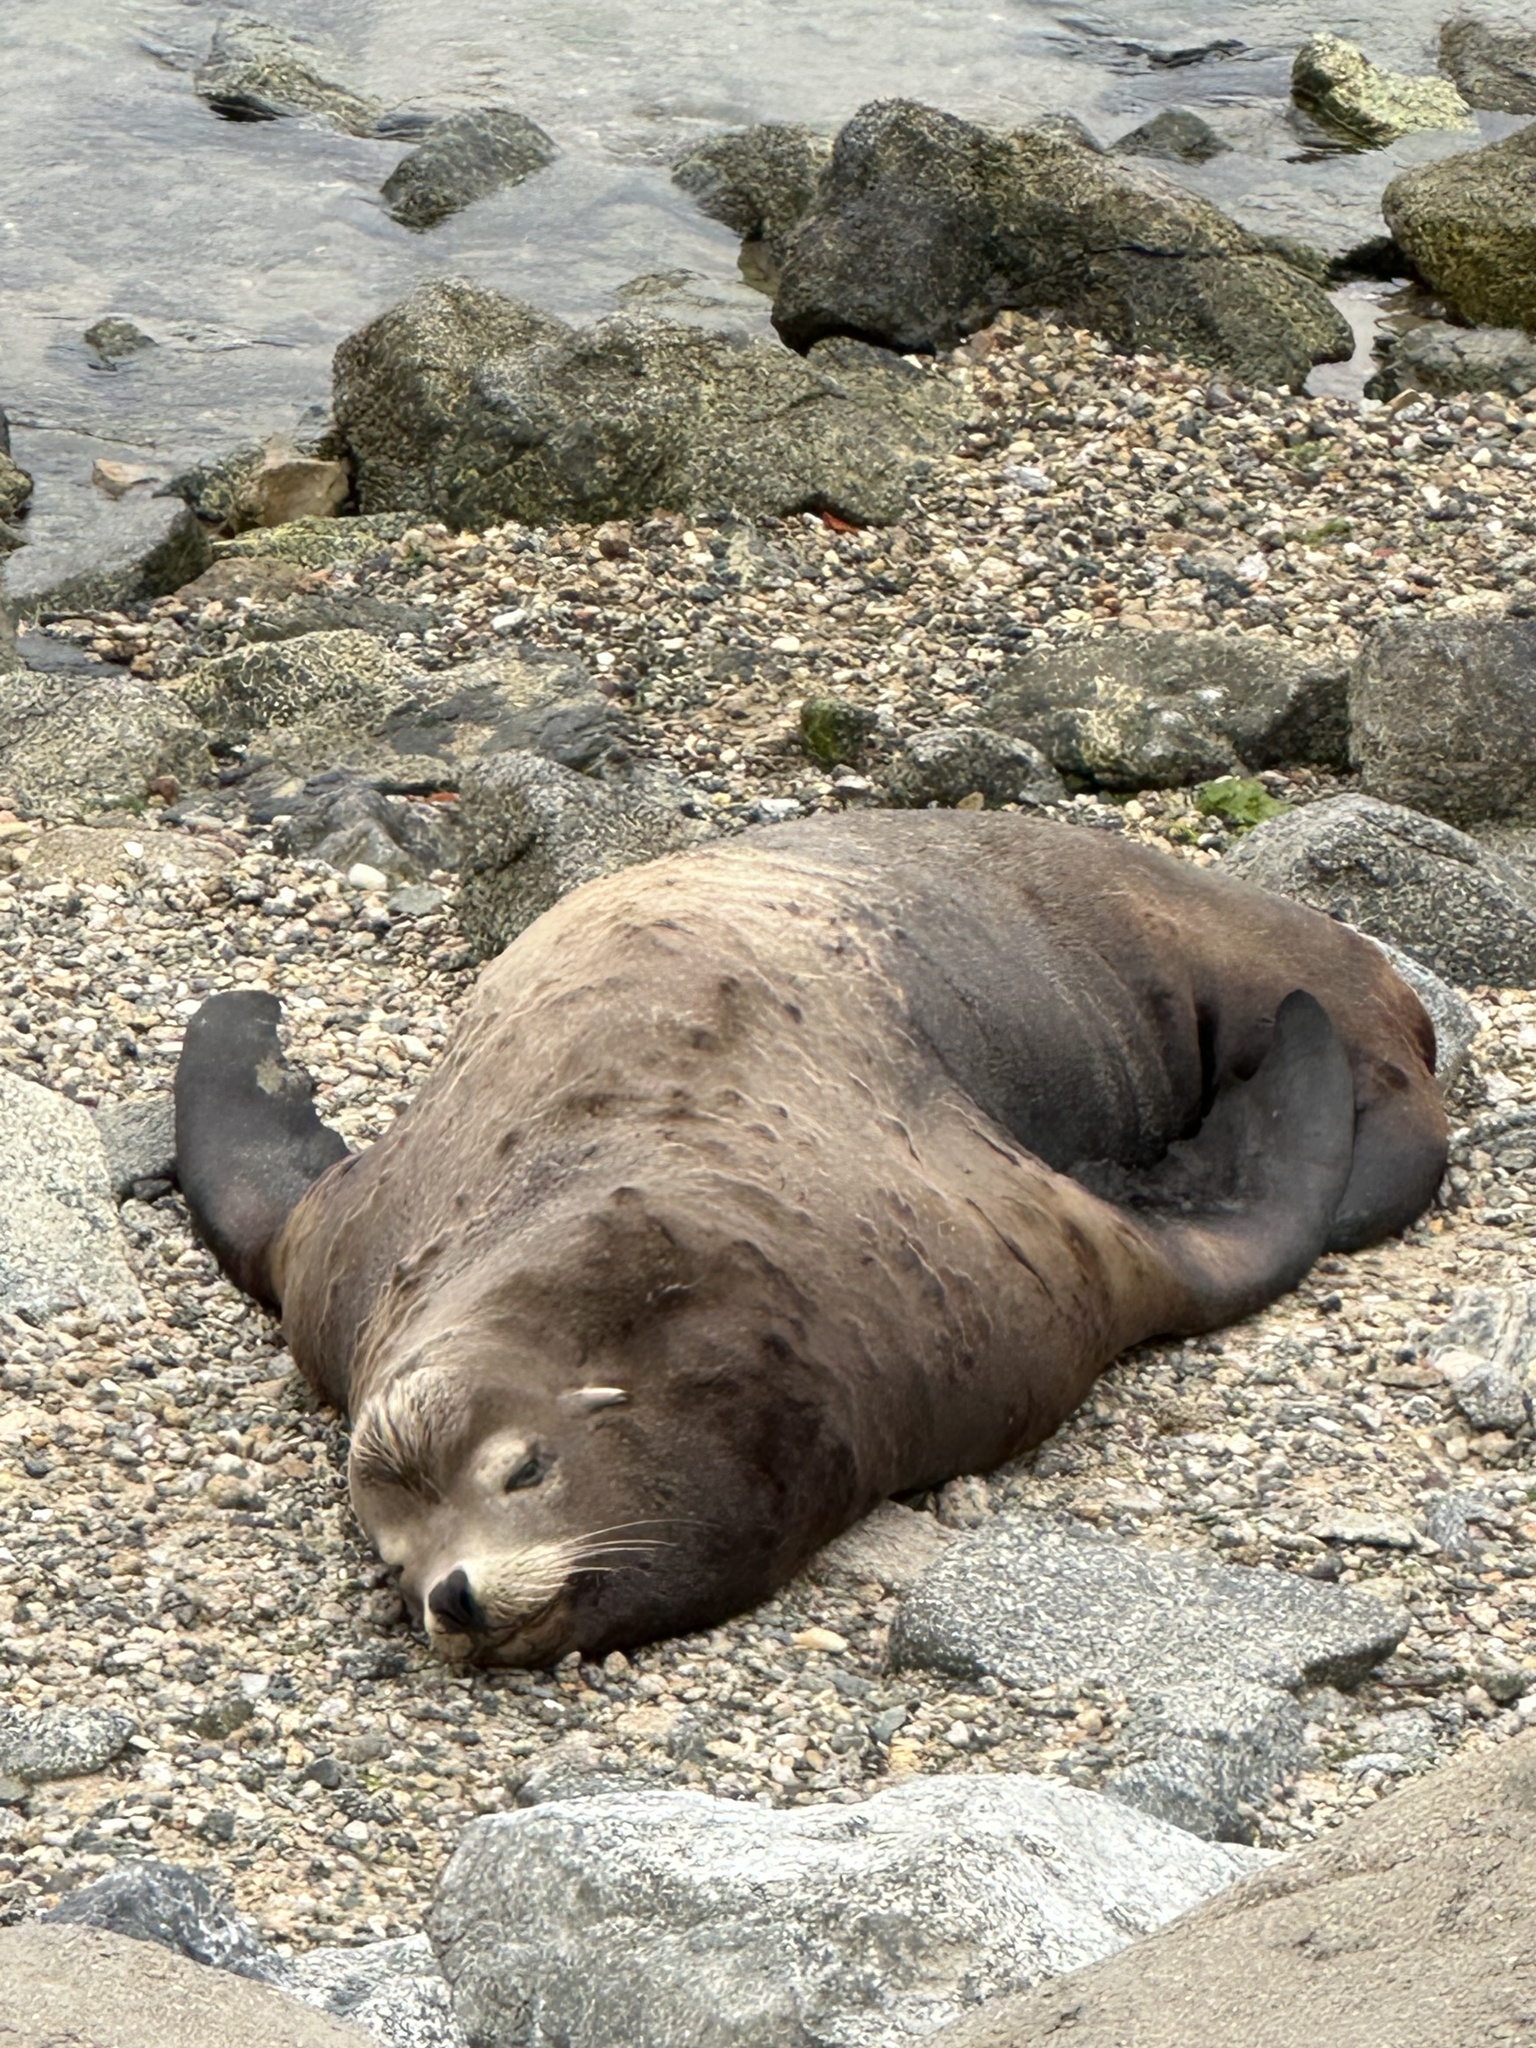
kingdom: Animalia
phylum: Chordata
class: Mammalia
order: Carnivora
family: Otariidae
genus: Zalophus
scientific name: Zalophus californianus
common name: California sea lion
